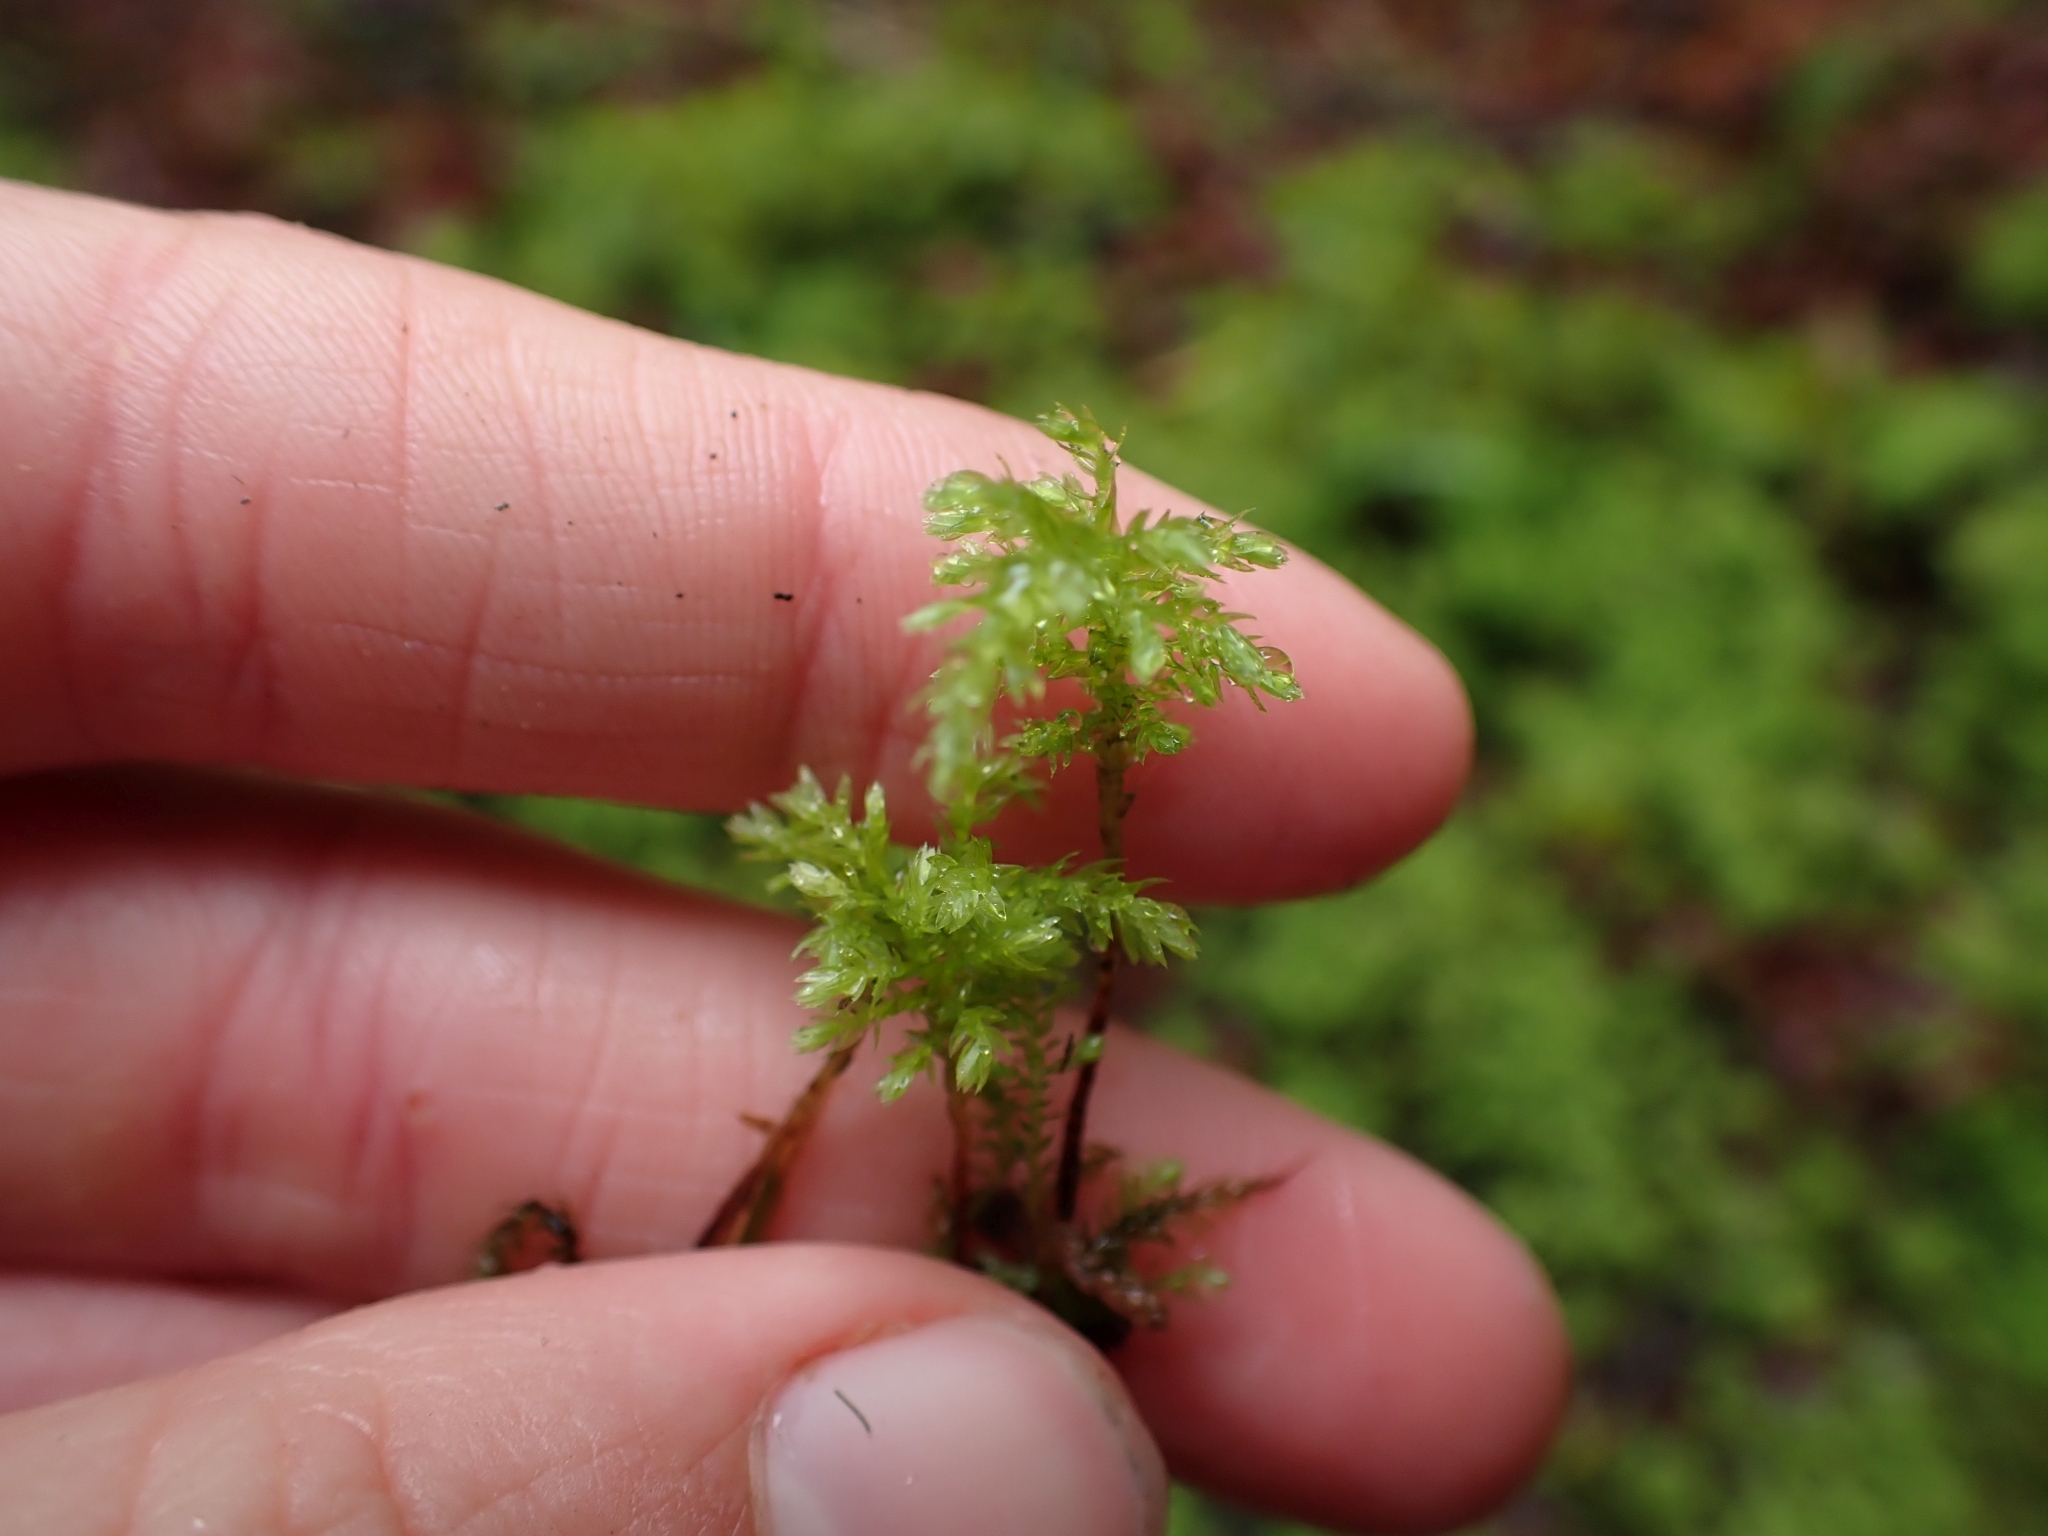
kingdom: Plantae
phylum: Bryophyta
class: Bryopsida
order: Bryales
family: Mniaceae
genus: Leucolepis
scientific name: Leucolepis acanthoneura
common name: Leucolepis umbrella moss
